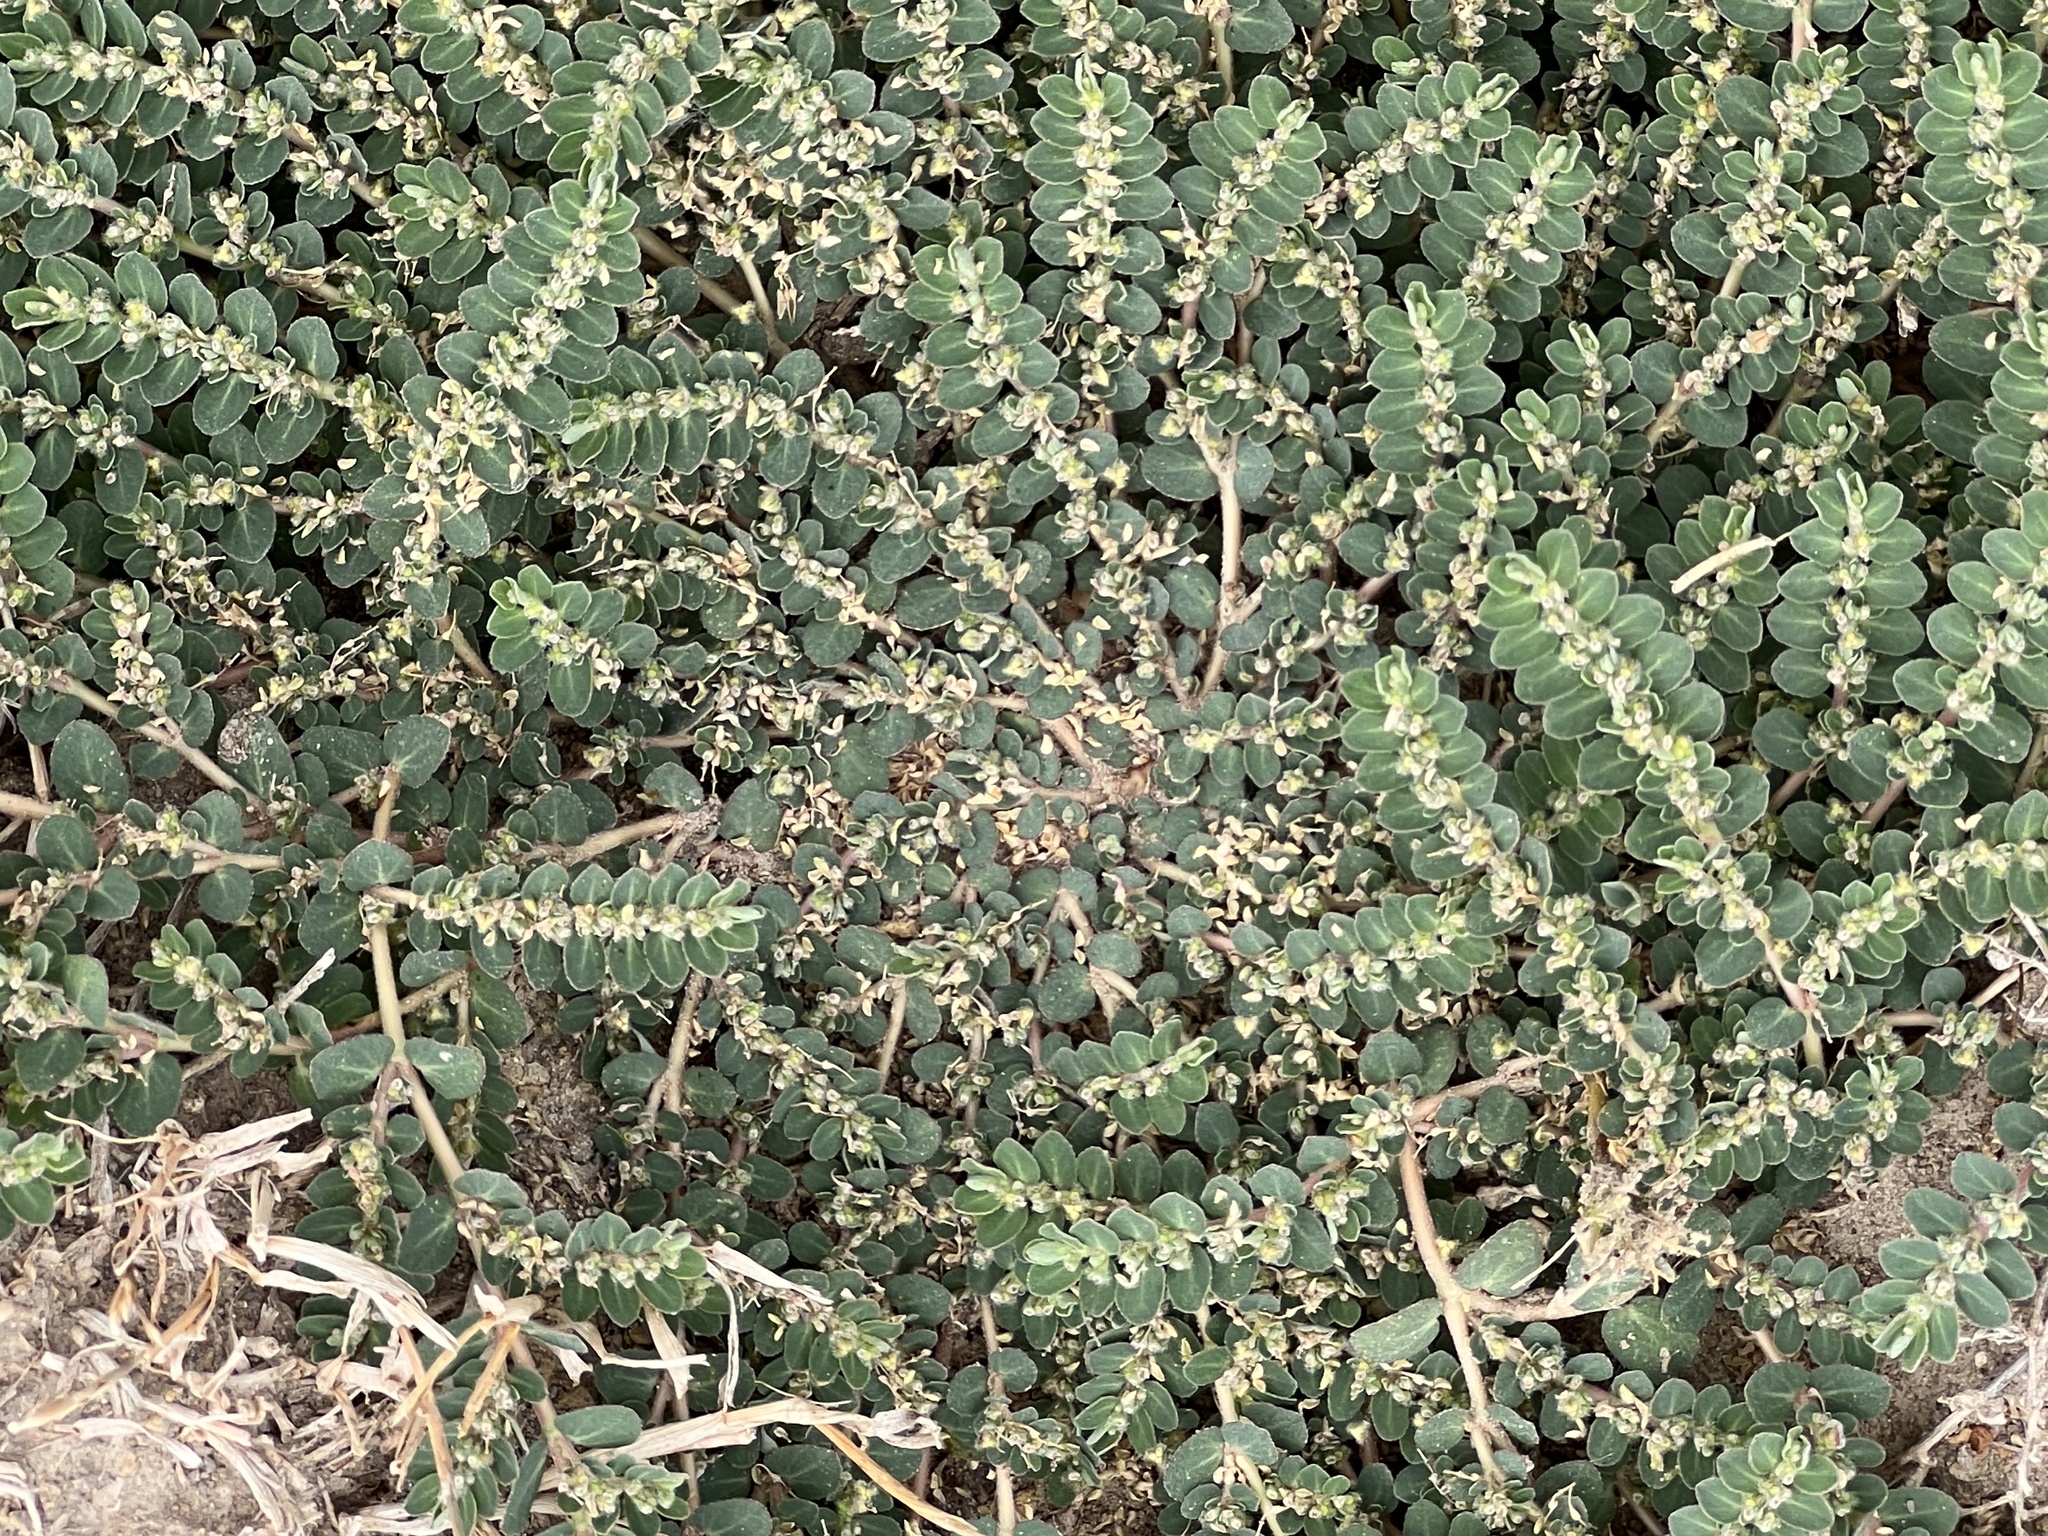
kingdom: Plantae
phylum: Tracheophyta
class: Magnoliopsida
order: Malpighiales
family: Euphorbiaceae
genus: Euphorbia
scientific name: Euphorbia prostrata
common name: Prostrate sandmat
